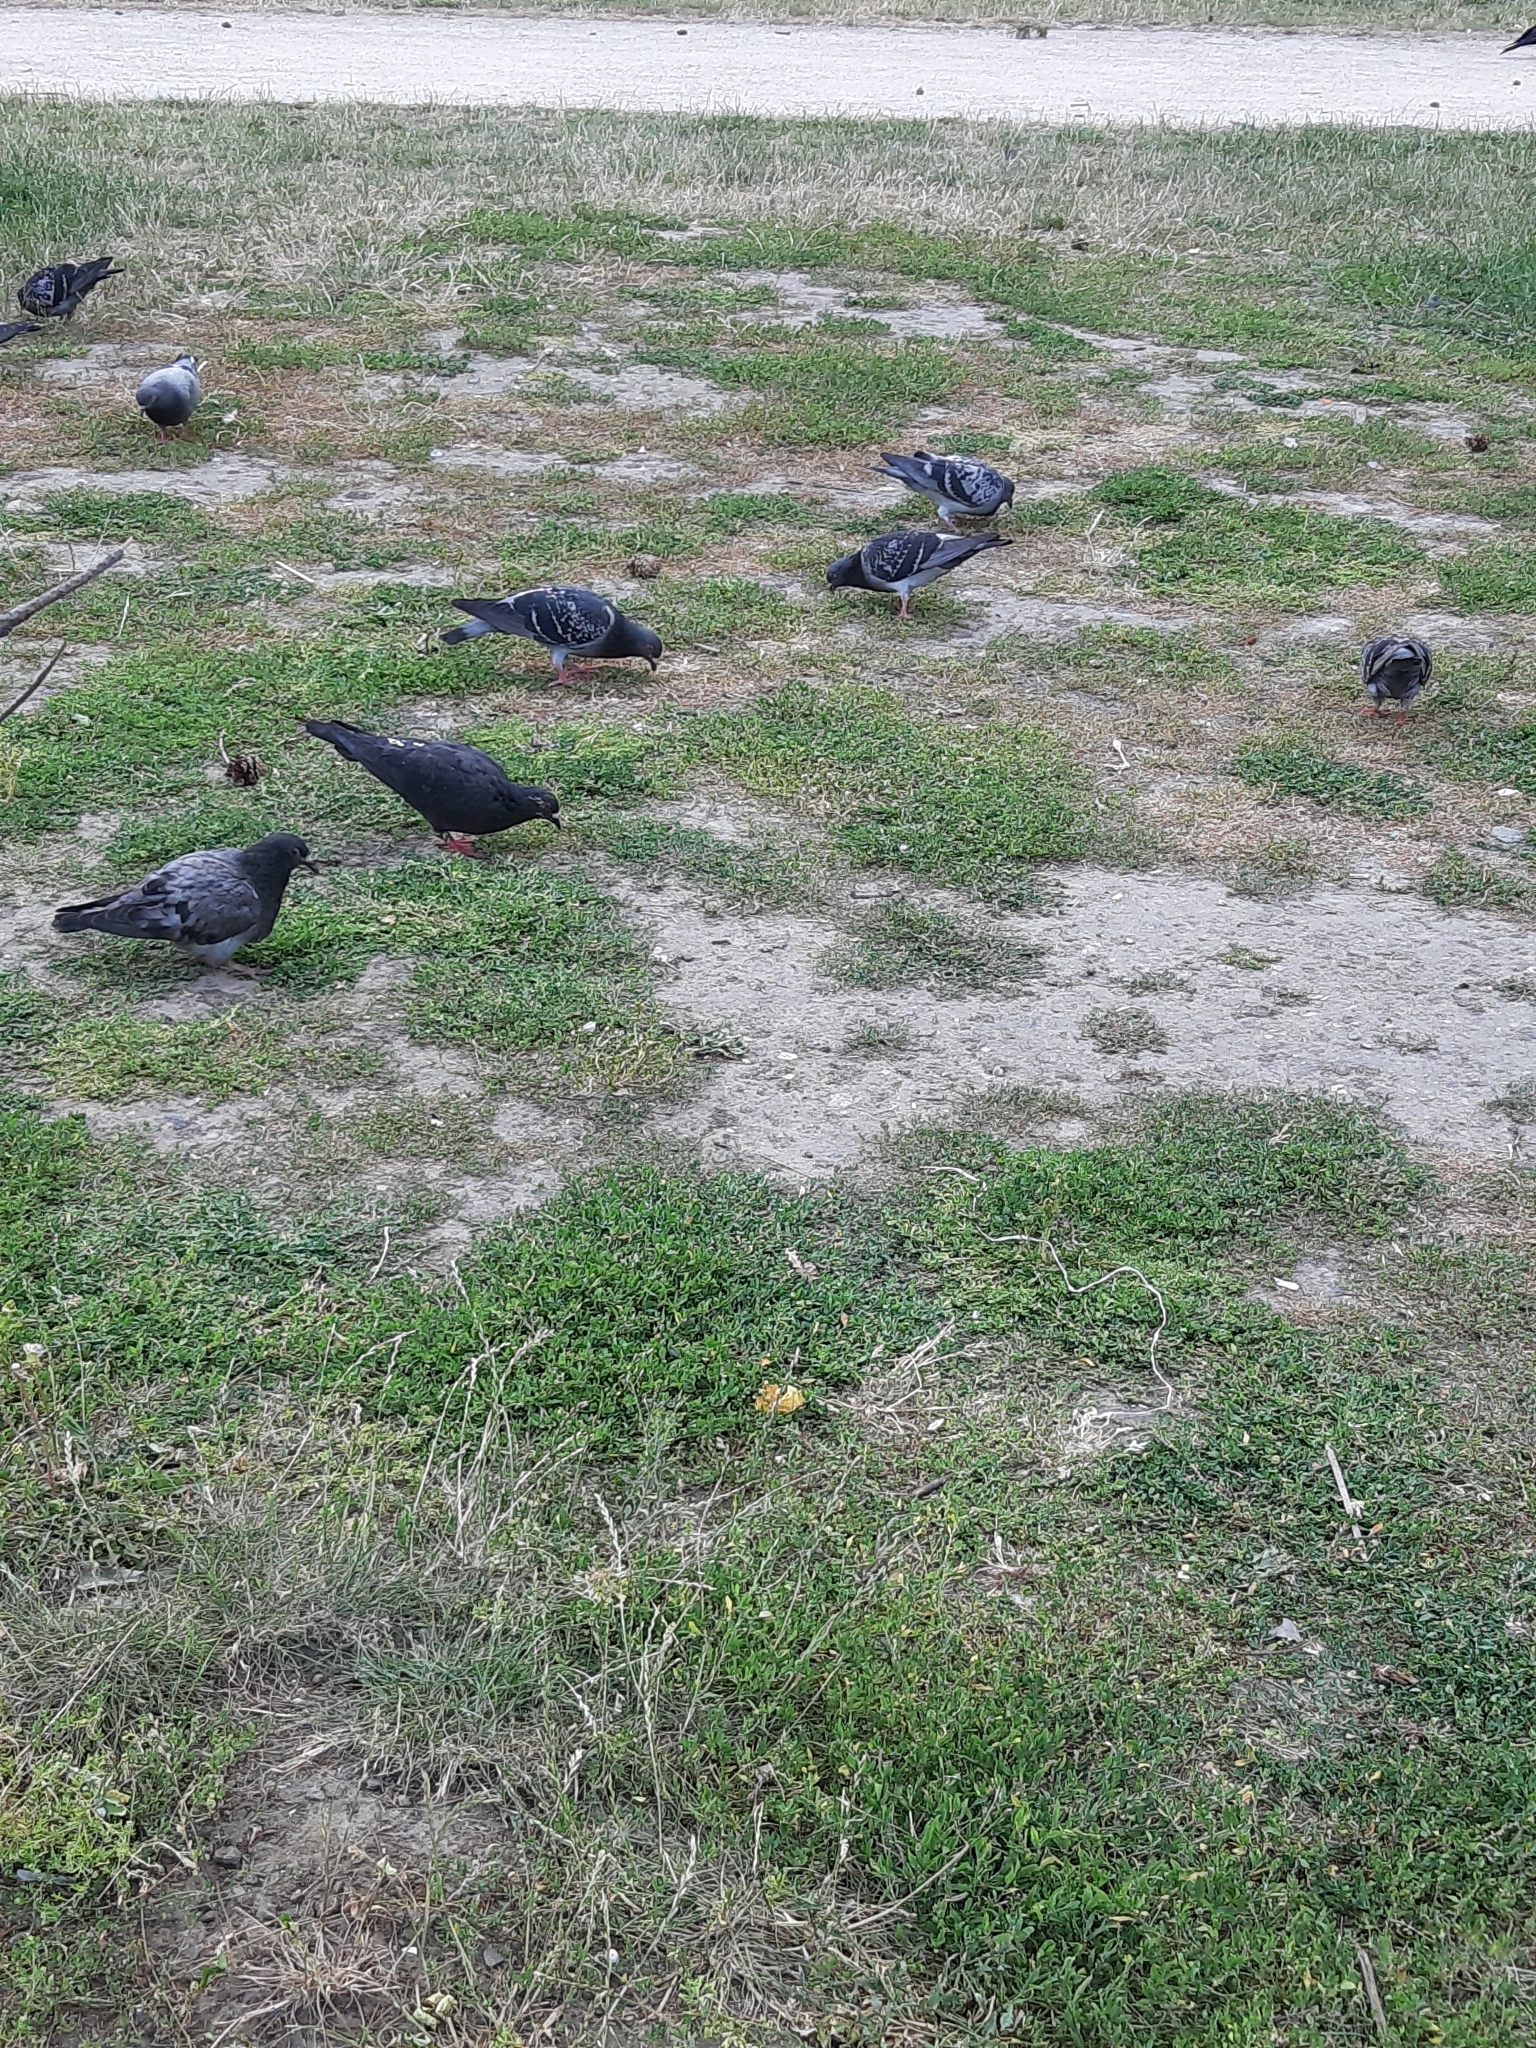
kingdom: Animalia
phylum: Chordata
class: Aves
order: Columbiformes
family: Columbidae
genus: Columba
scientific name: Columba livia
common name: Rock pigeon
